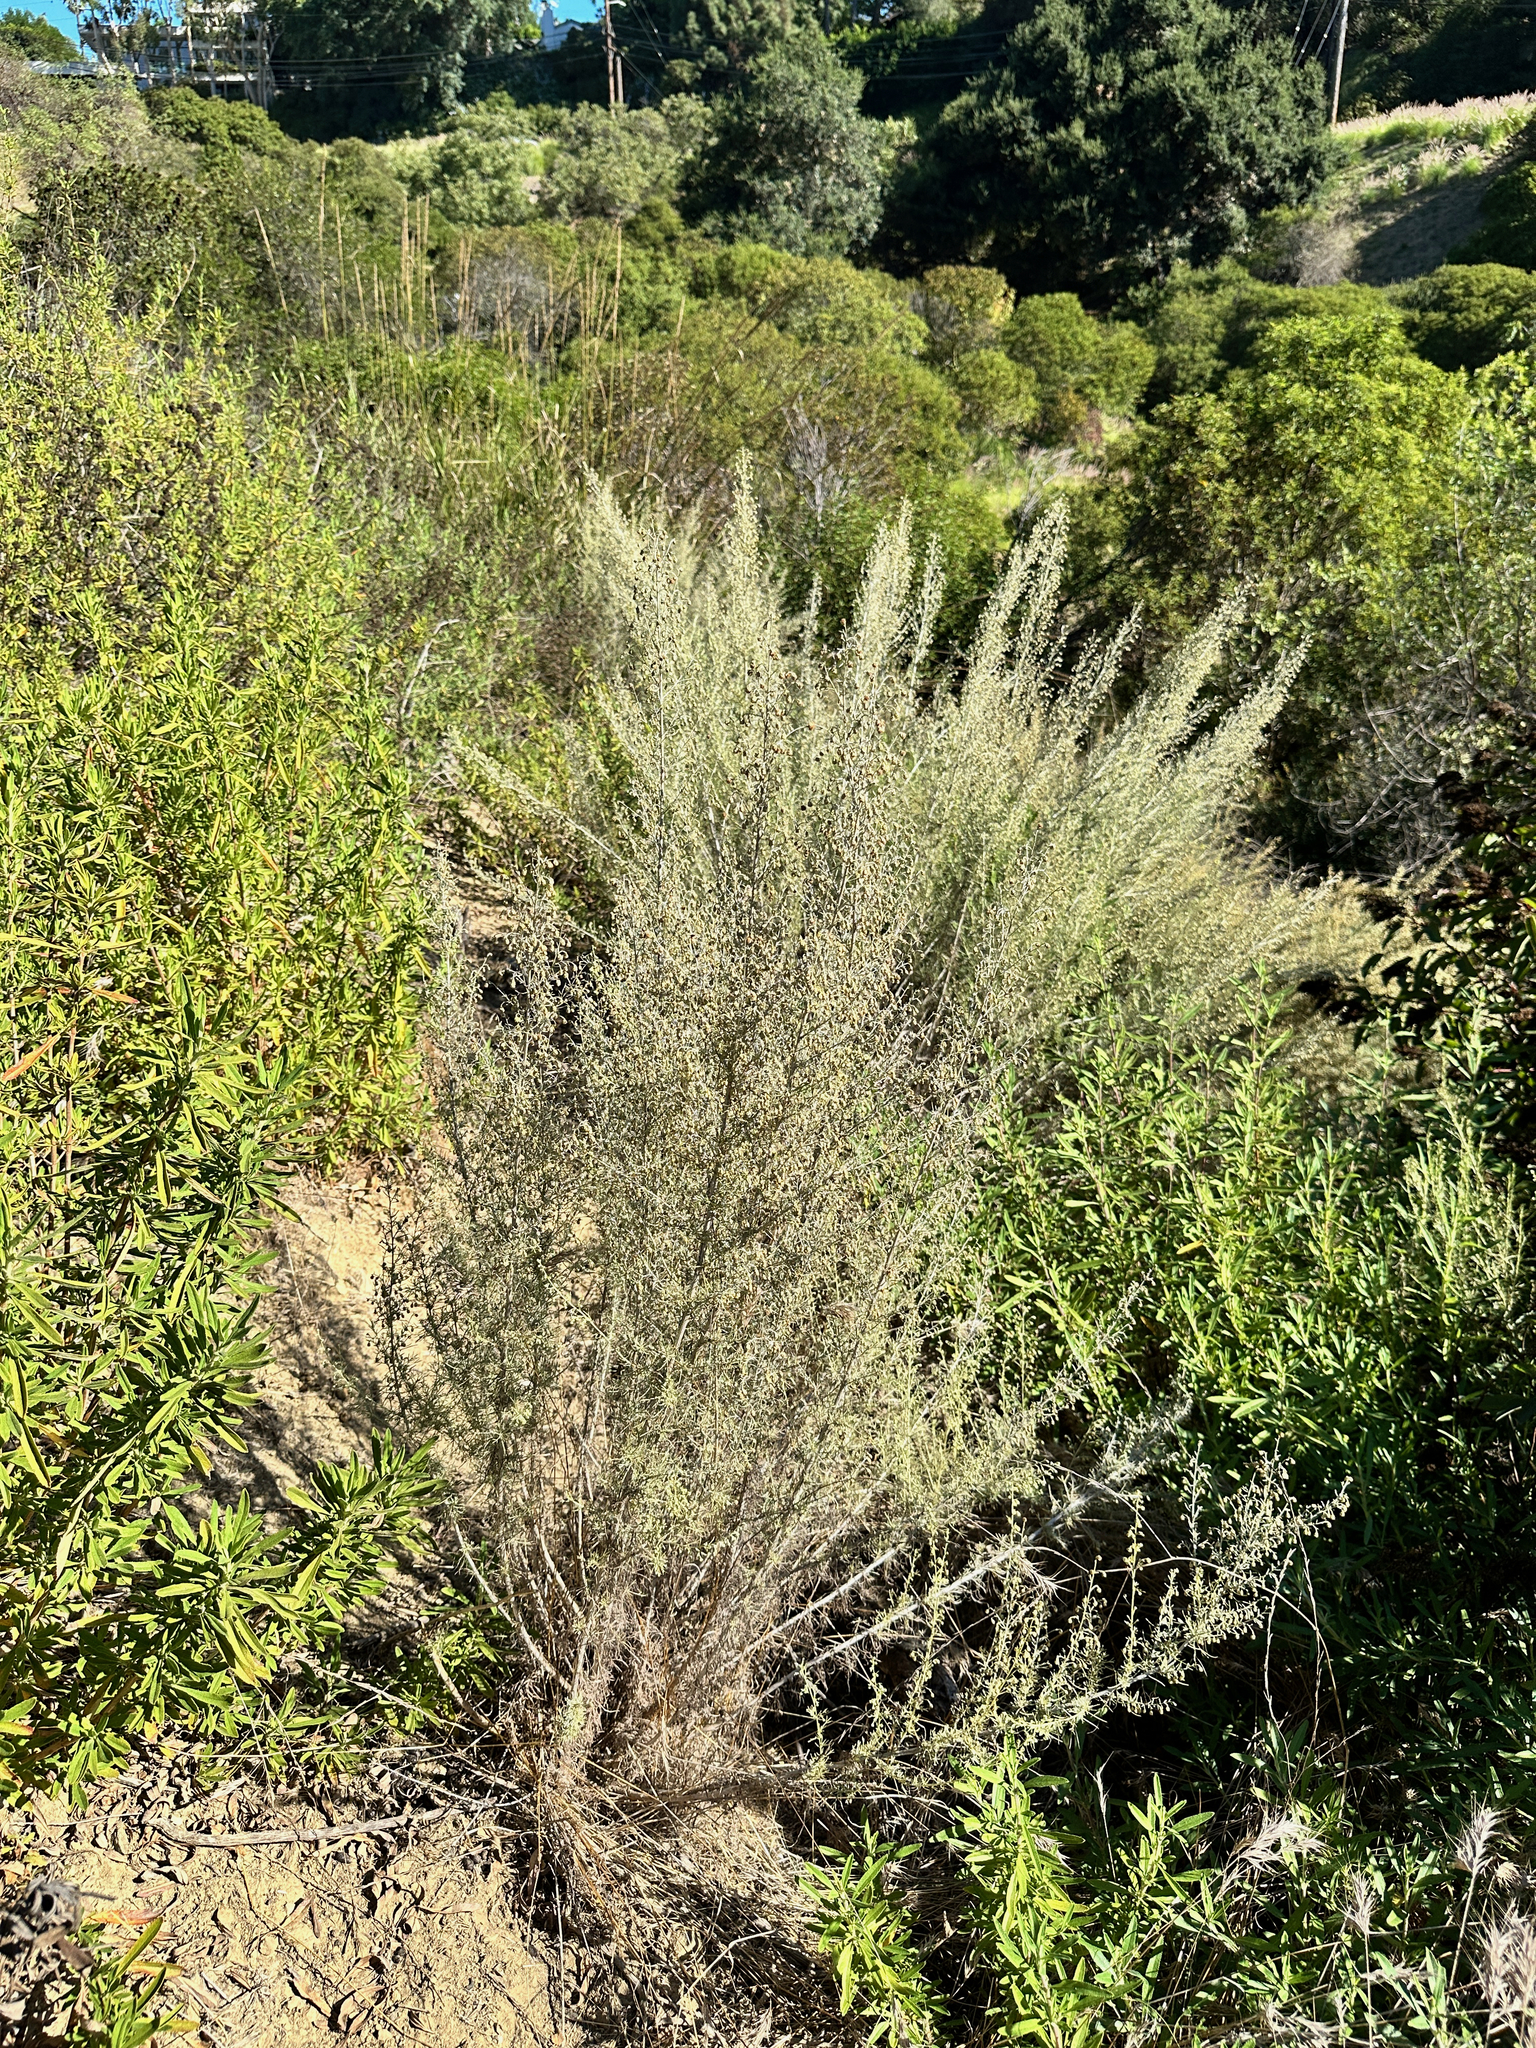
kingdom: Plantae
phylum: Tracheophyta
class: Magnoliopsida
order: Asterales
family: Asteraceae
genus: Artemisia
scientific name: Artemisia californica
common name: California sagebrush
